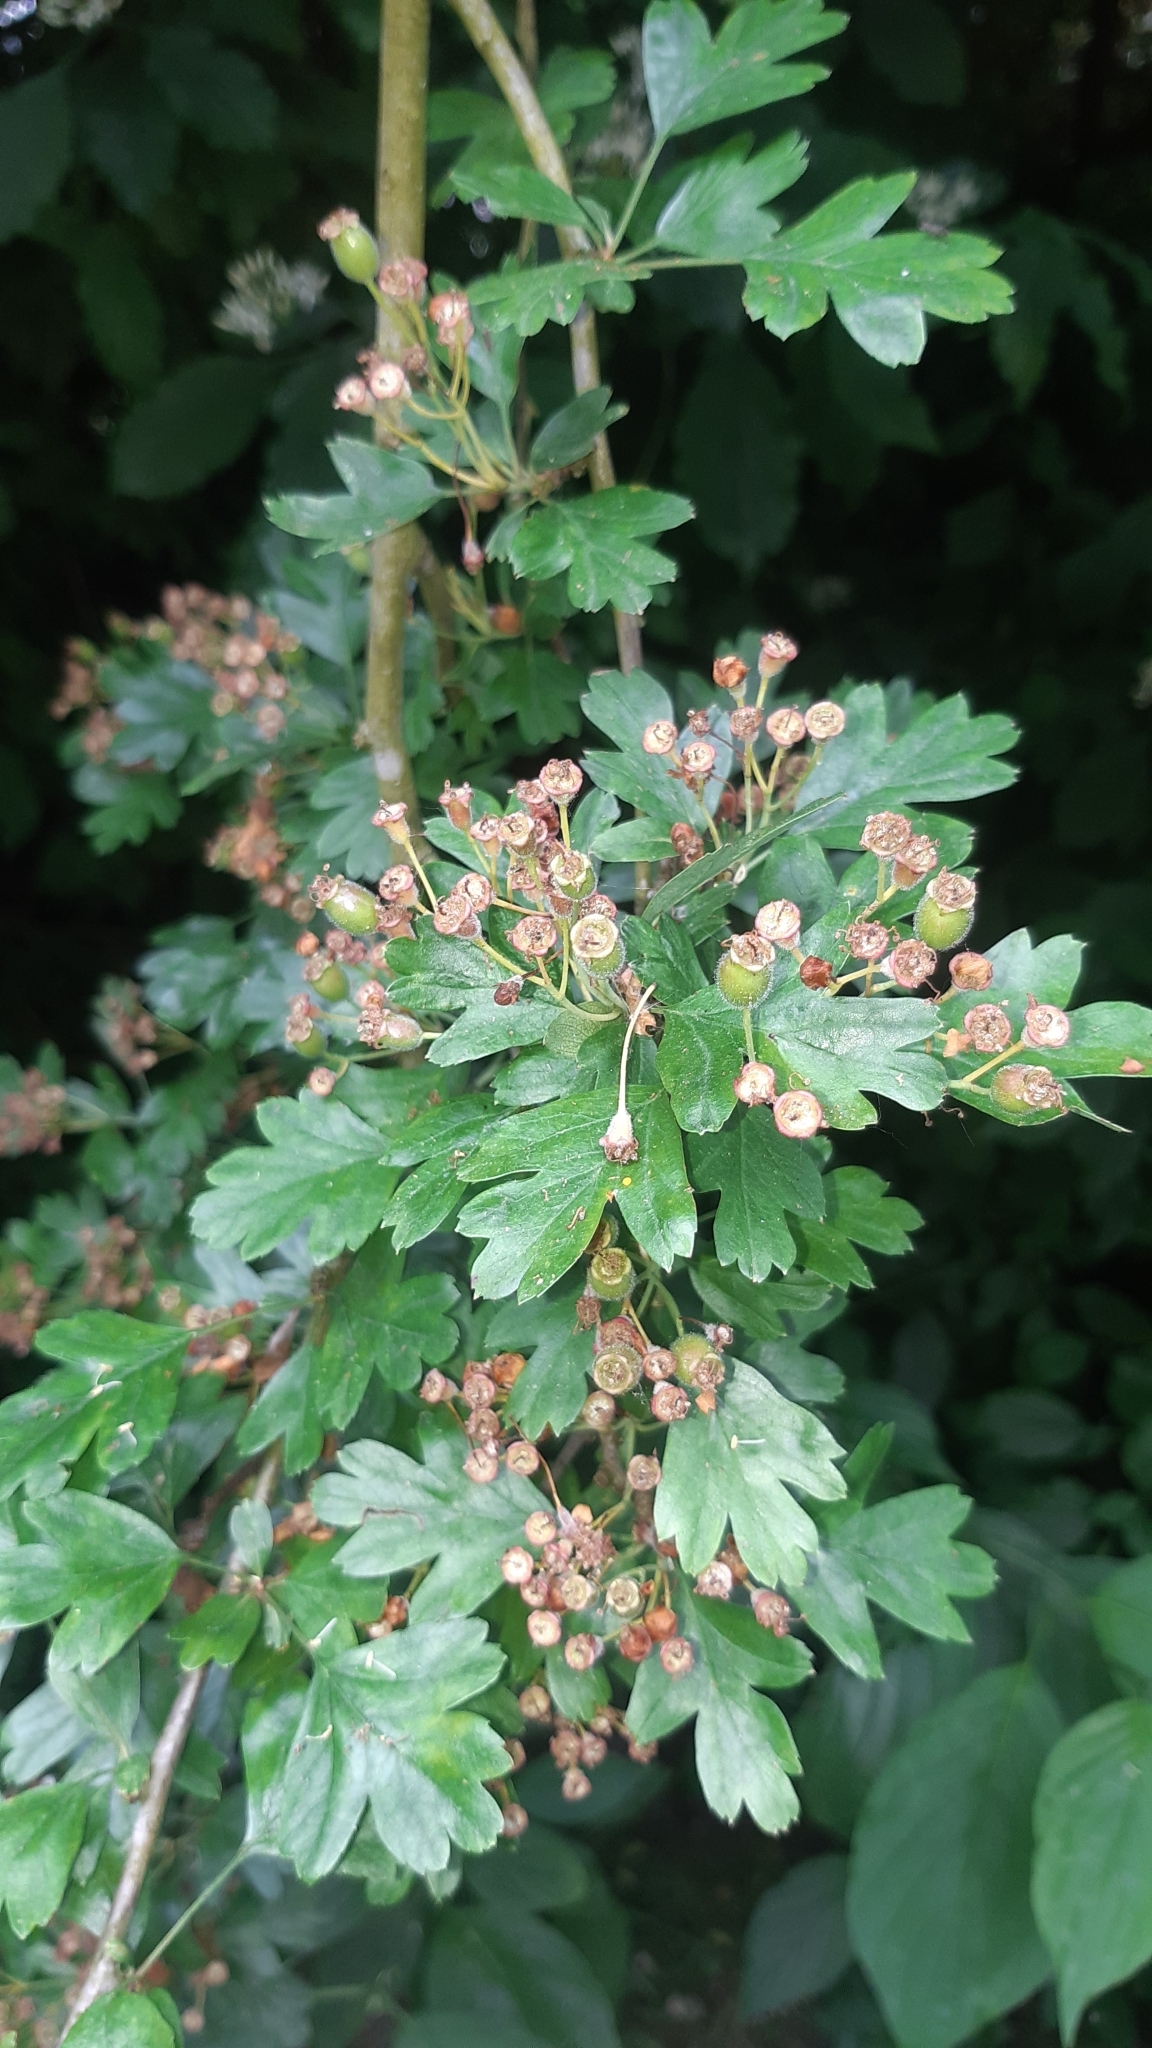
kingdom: Plantae
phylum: Tracheophyta
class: Magnoliopsida
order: Rosales
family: Rosaceae
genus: Crataegus
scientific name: Crataegus monogyna
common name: Hawthorn
